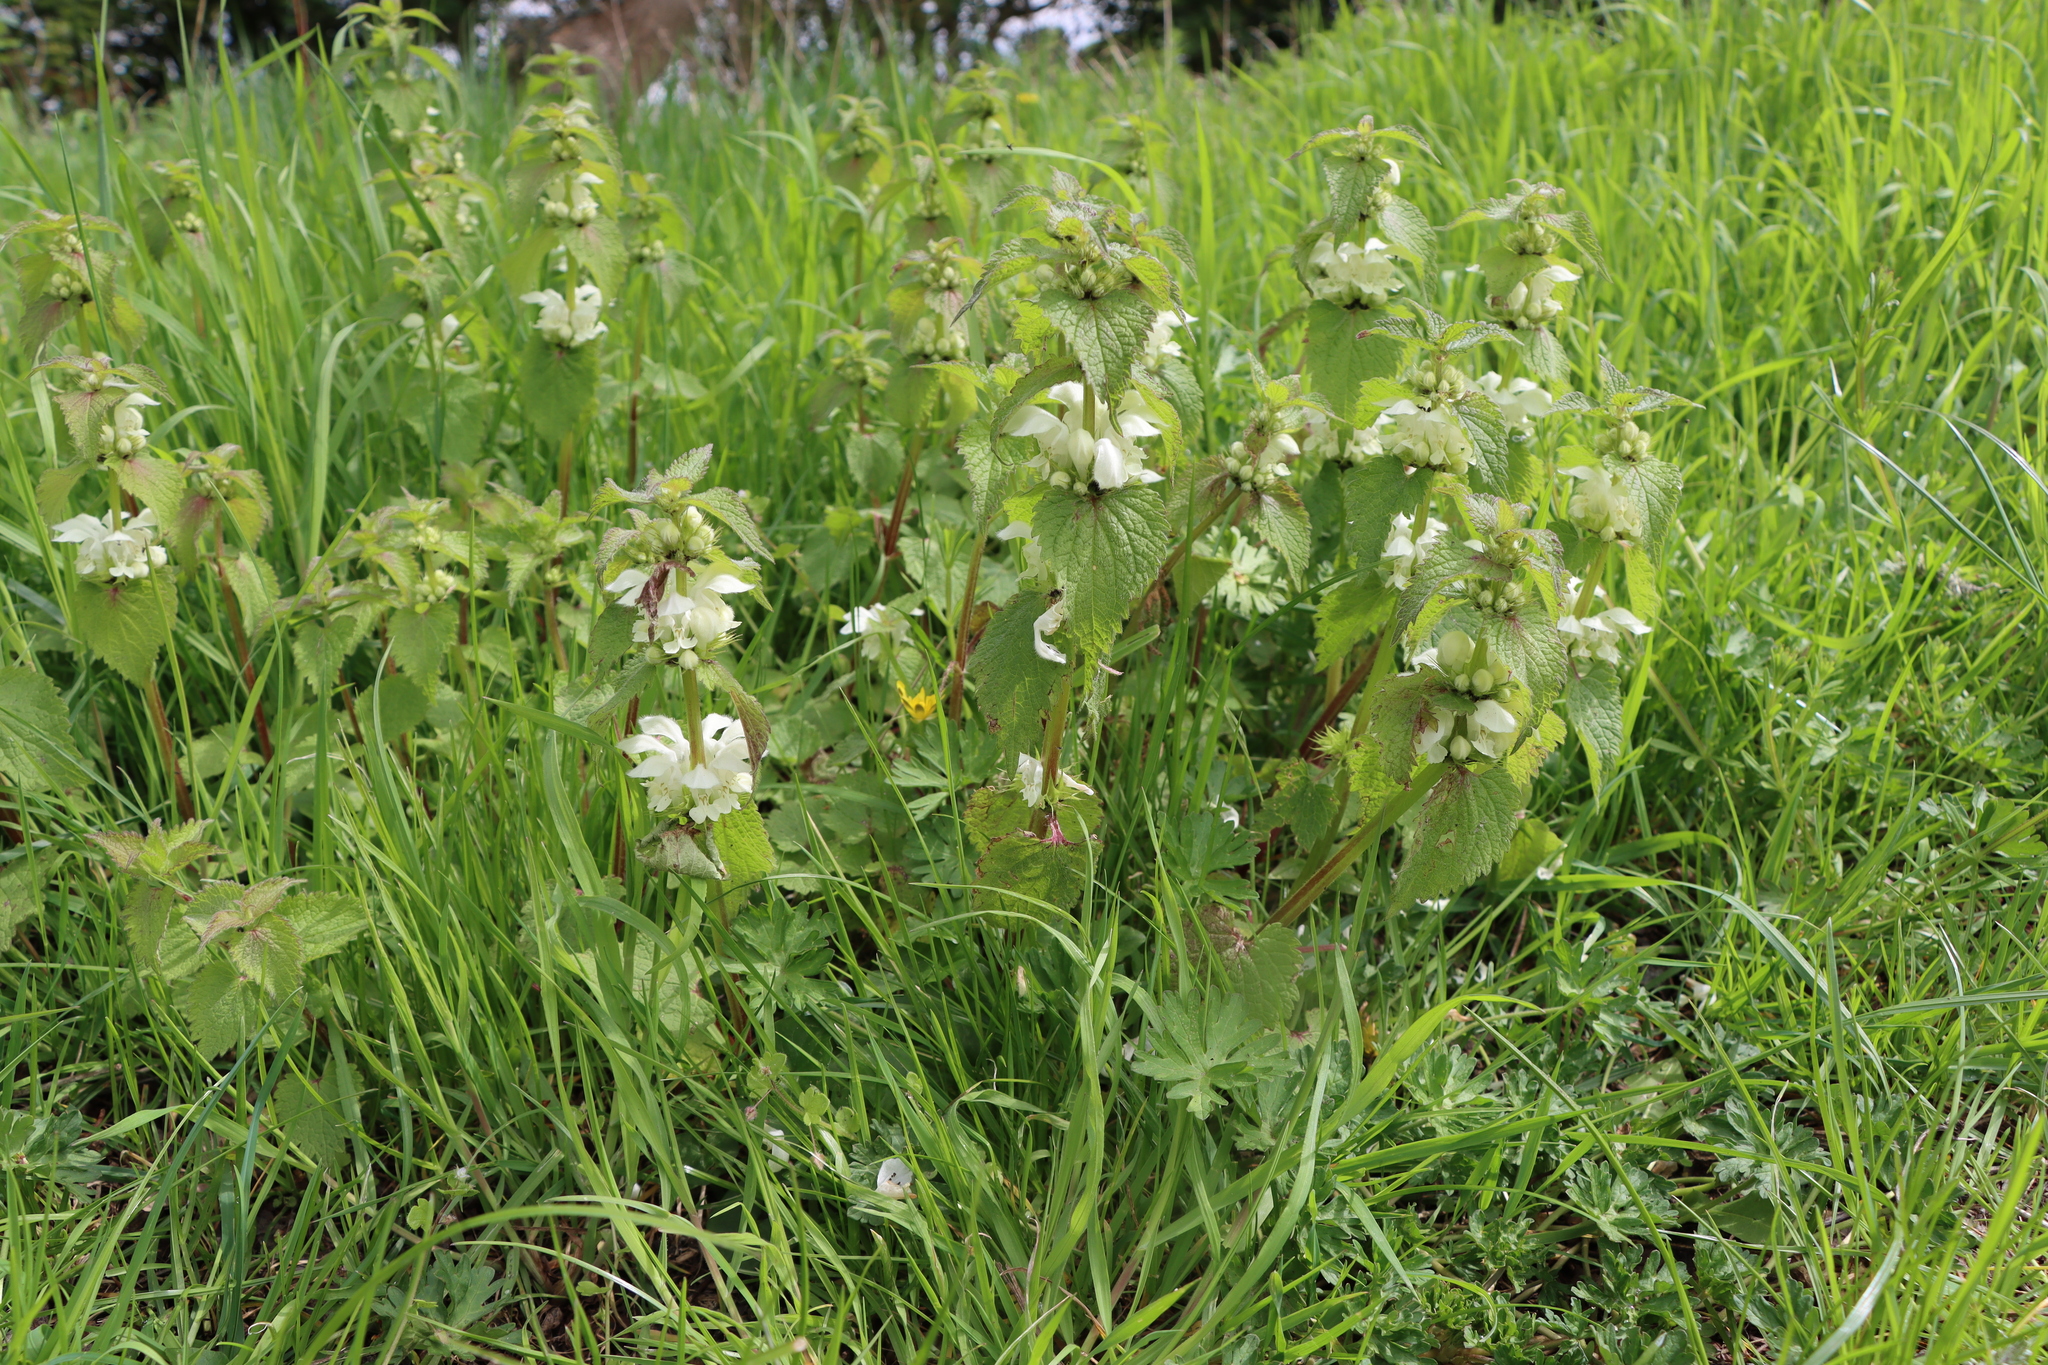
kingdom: Plantae
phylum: Tracheophyta
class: Magnoliopsida
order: Lamiales
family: Lamiaceae
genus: Lamium
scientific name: Lamium album
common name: White dead-nettle
